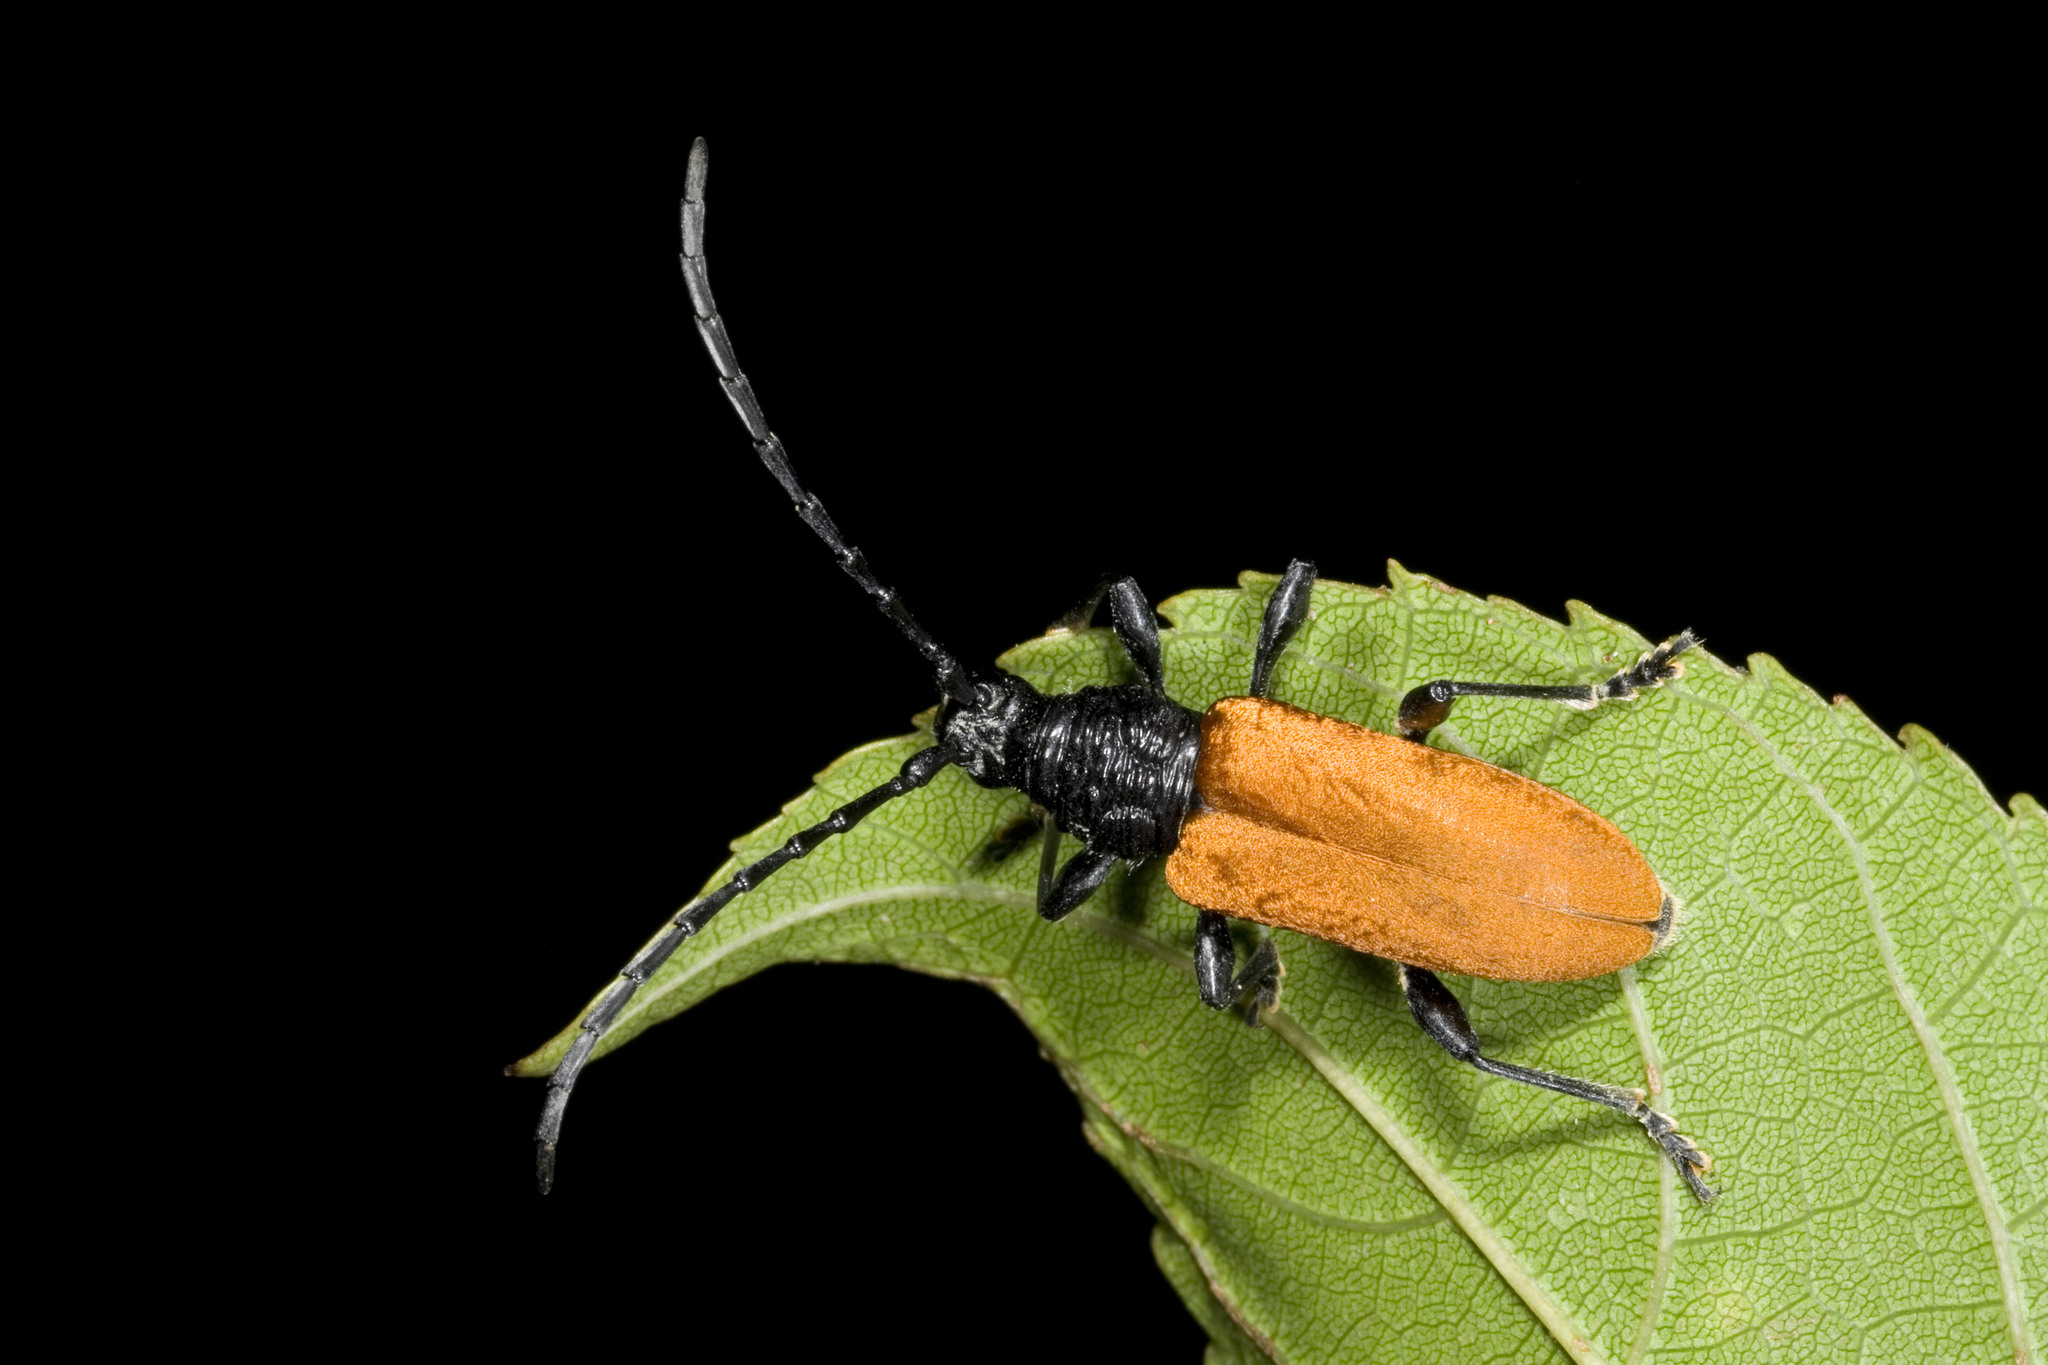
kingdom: Animalia
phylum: Arthropoda
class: Insecta
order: Coleoptera
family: Cerambycidae
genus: Lachnopterus
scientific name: Lachnopterus socius
